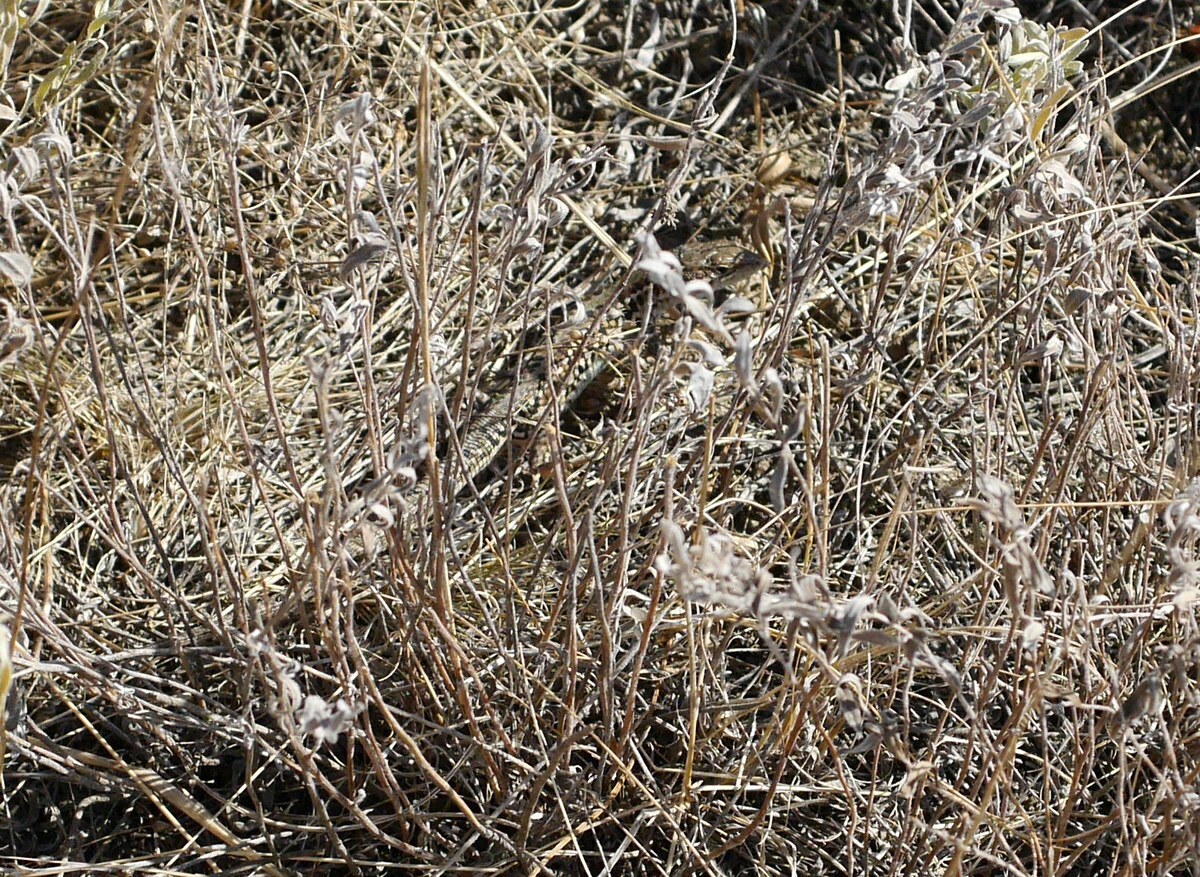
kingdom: Animalia
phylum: Chordata
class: Squamata
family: Lacertidae
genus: Podarcis
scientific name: Podarcis tauricus
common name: Balkan wall lizard
